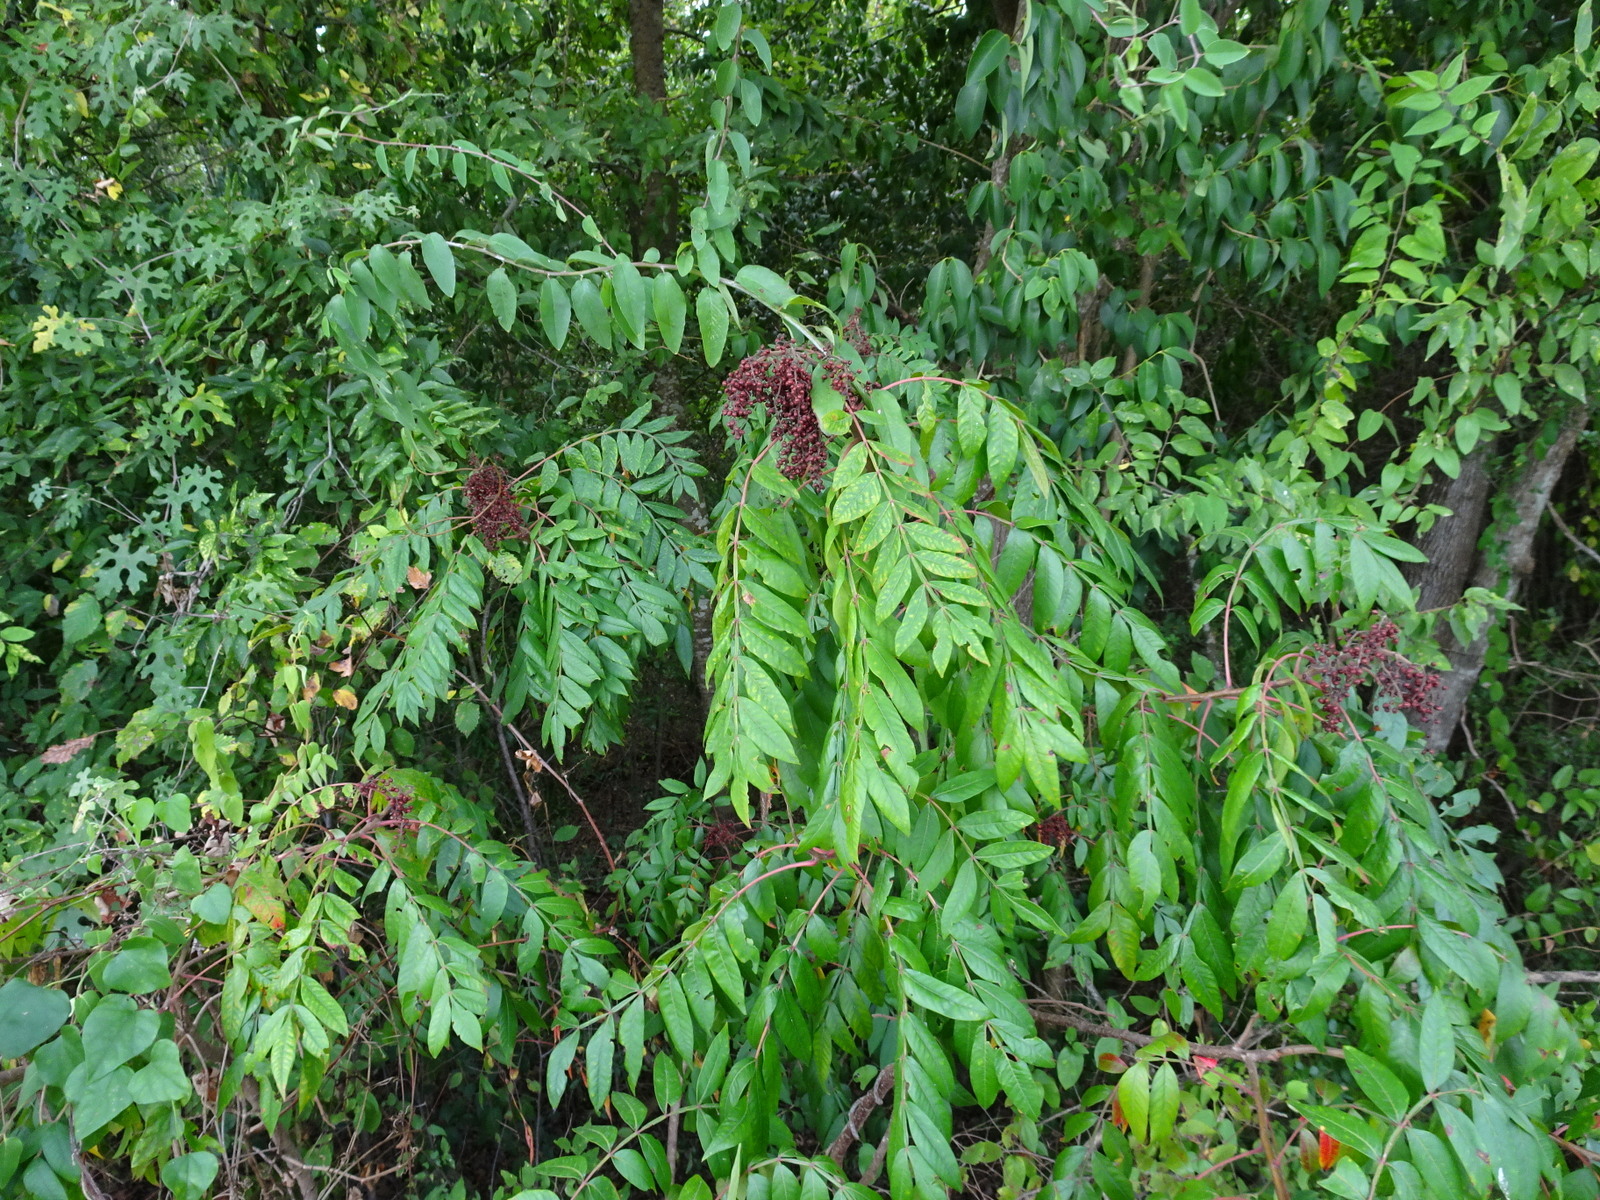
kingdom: Plantae
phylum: Tracheophyta
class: Magnoliopsida
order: Sapindales
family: Anacardiaceae
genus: Rhus
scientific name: Rhus copallina
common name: Shining sumac
